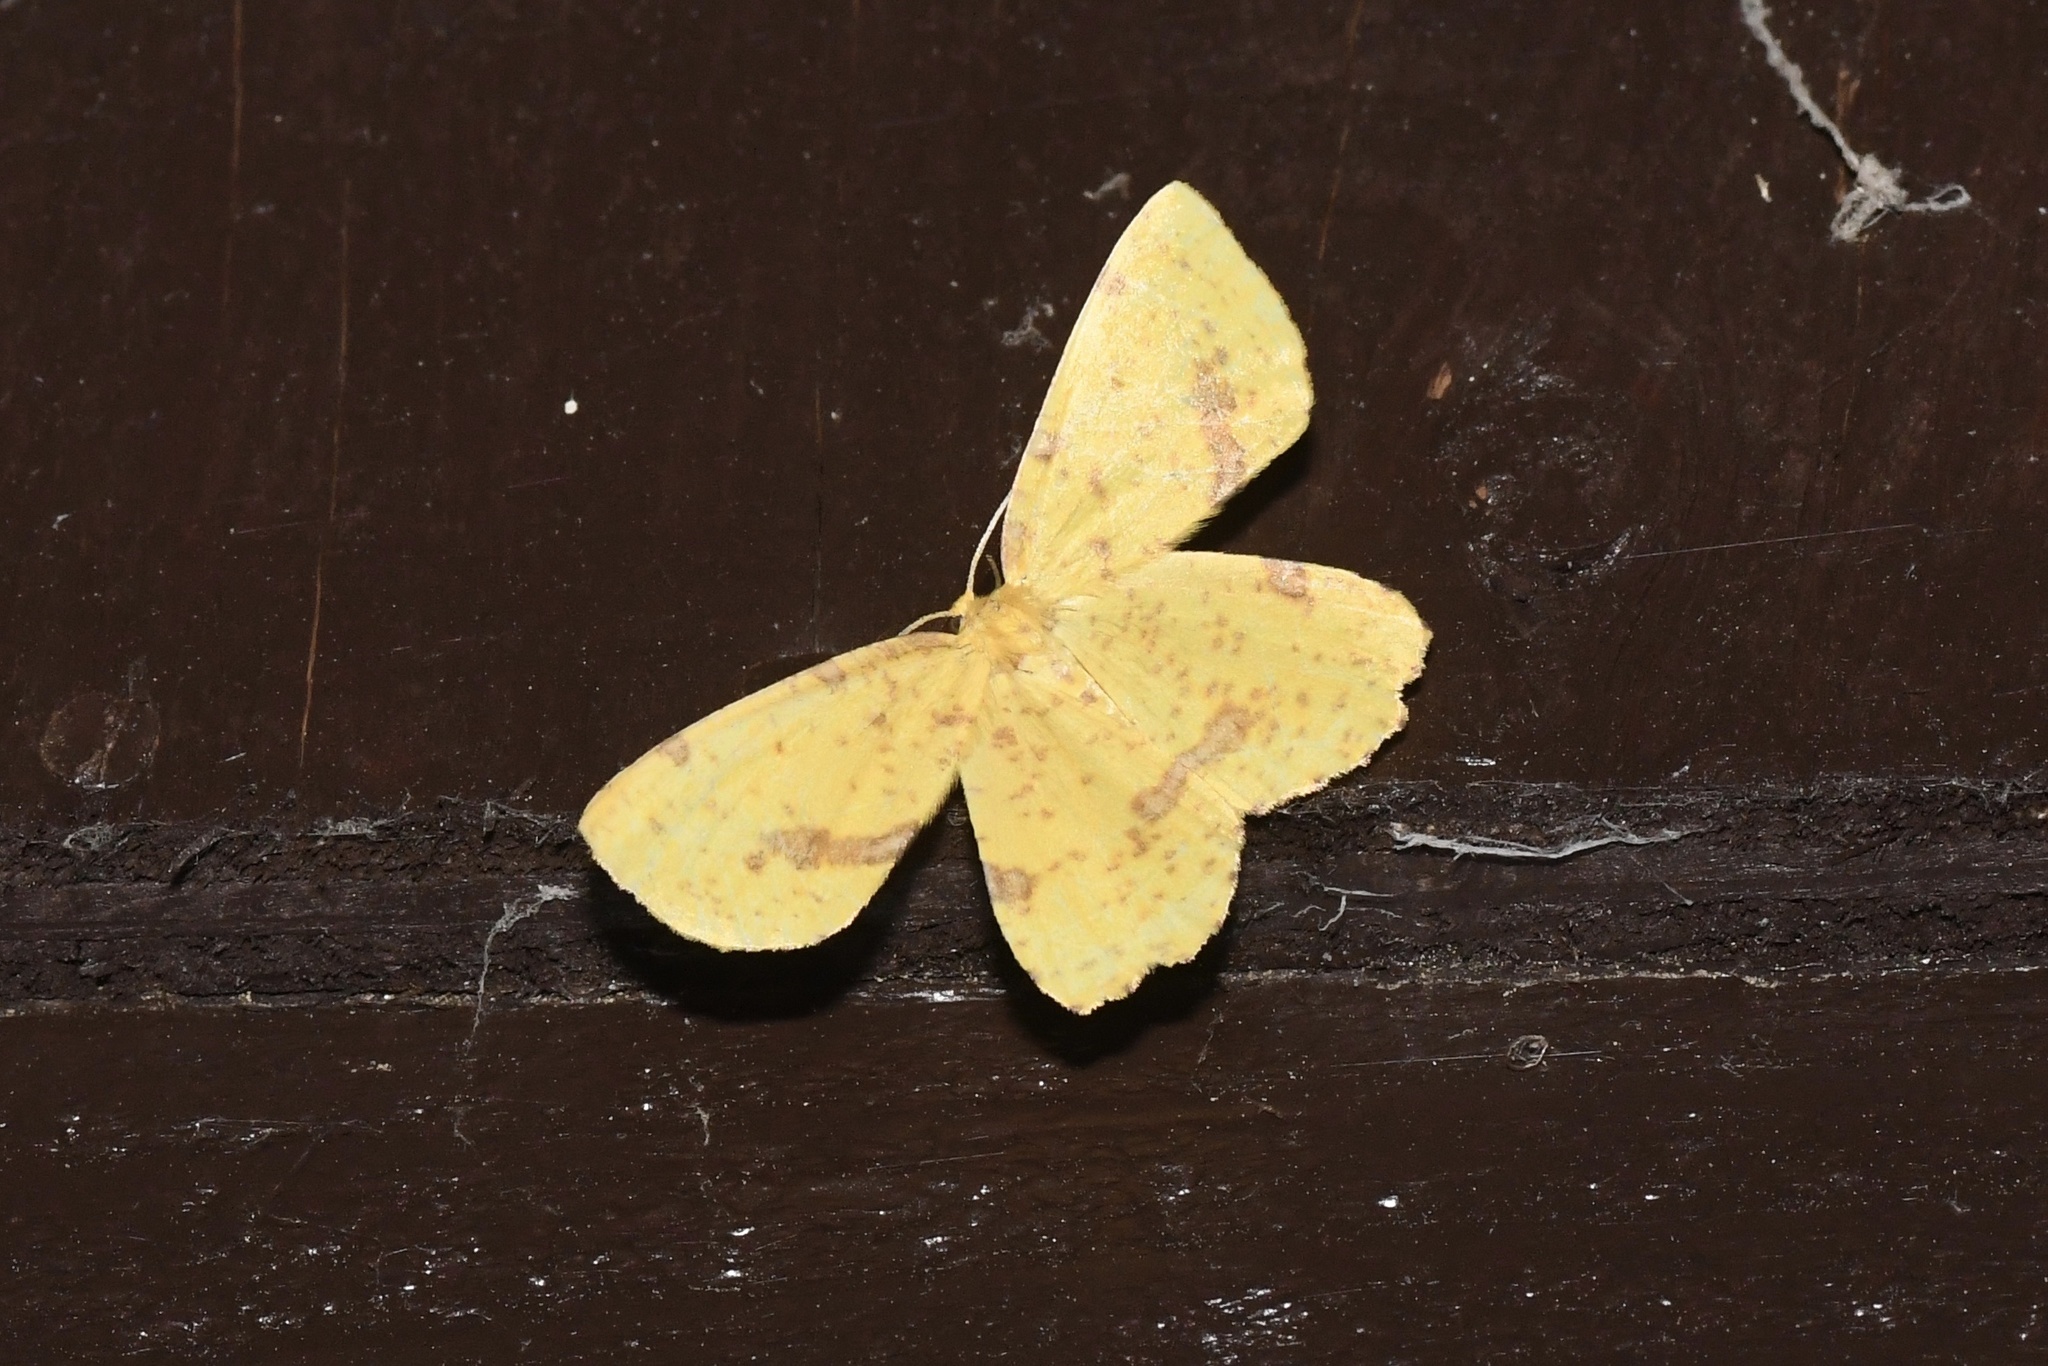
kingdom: Animalia
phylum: Arthropoda
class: Insecta
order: Lepidoptera
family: Geometridae
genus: Xanthotype
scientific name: Xanthotype
